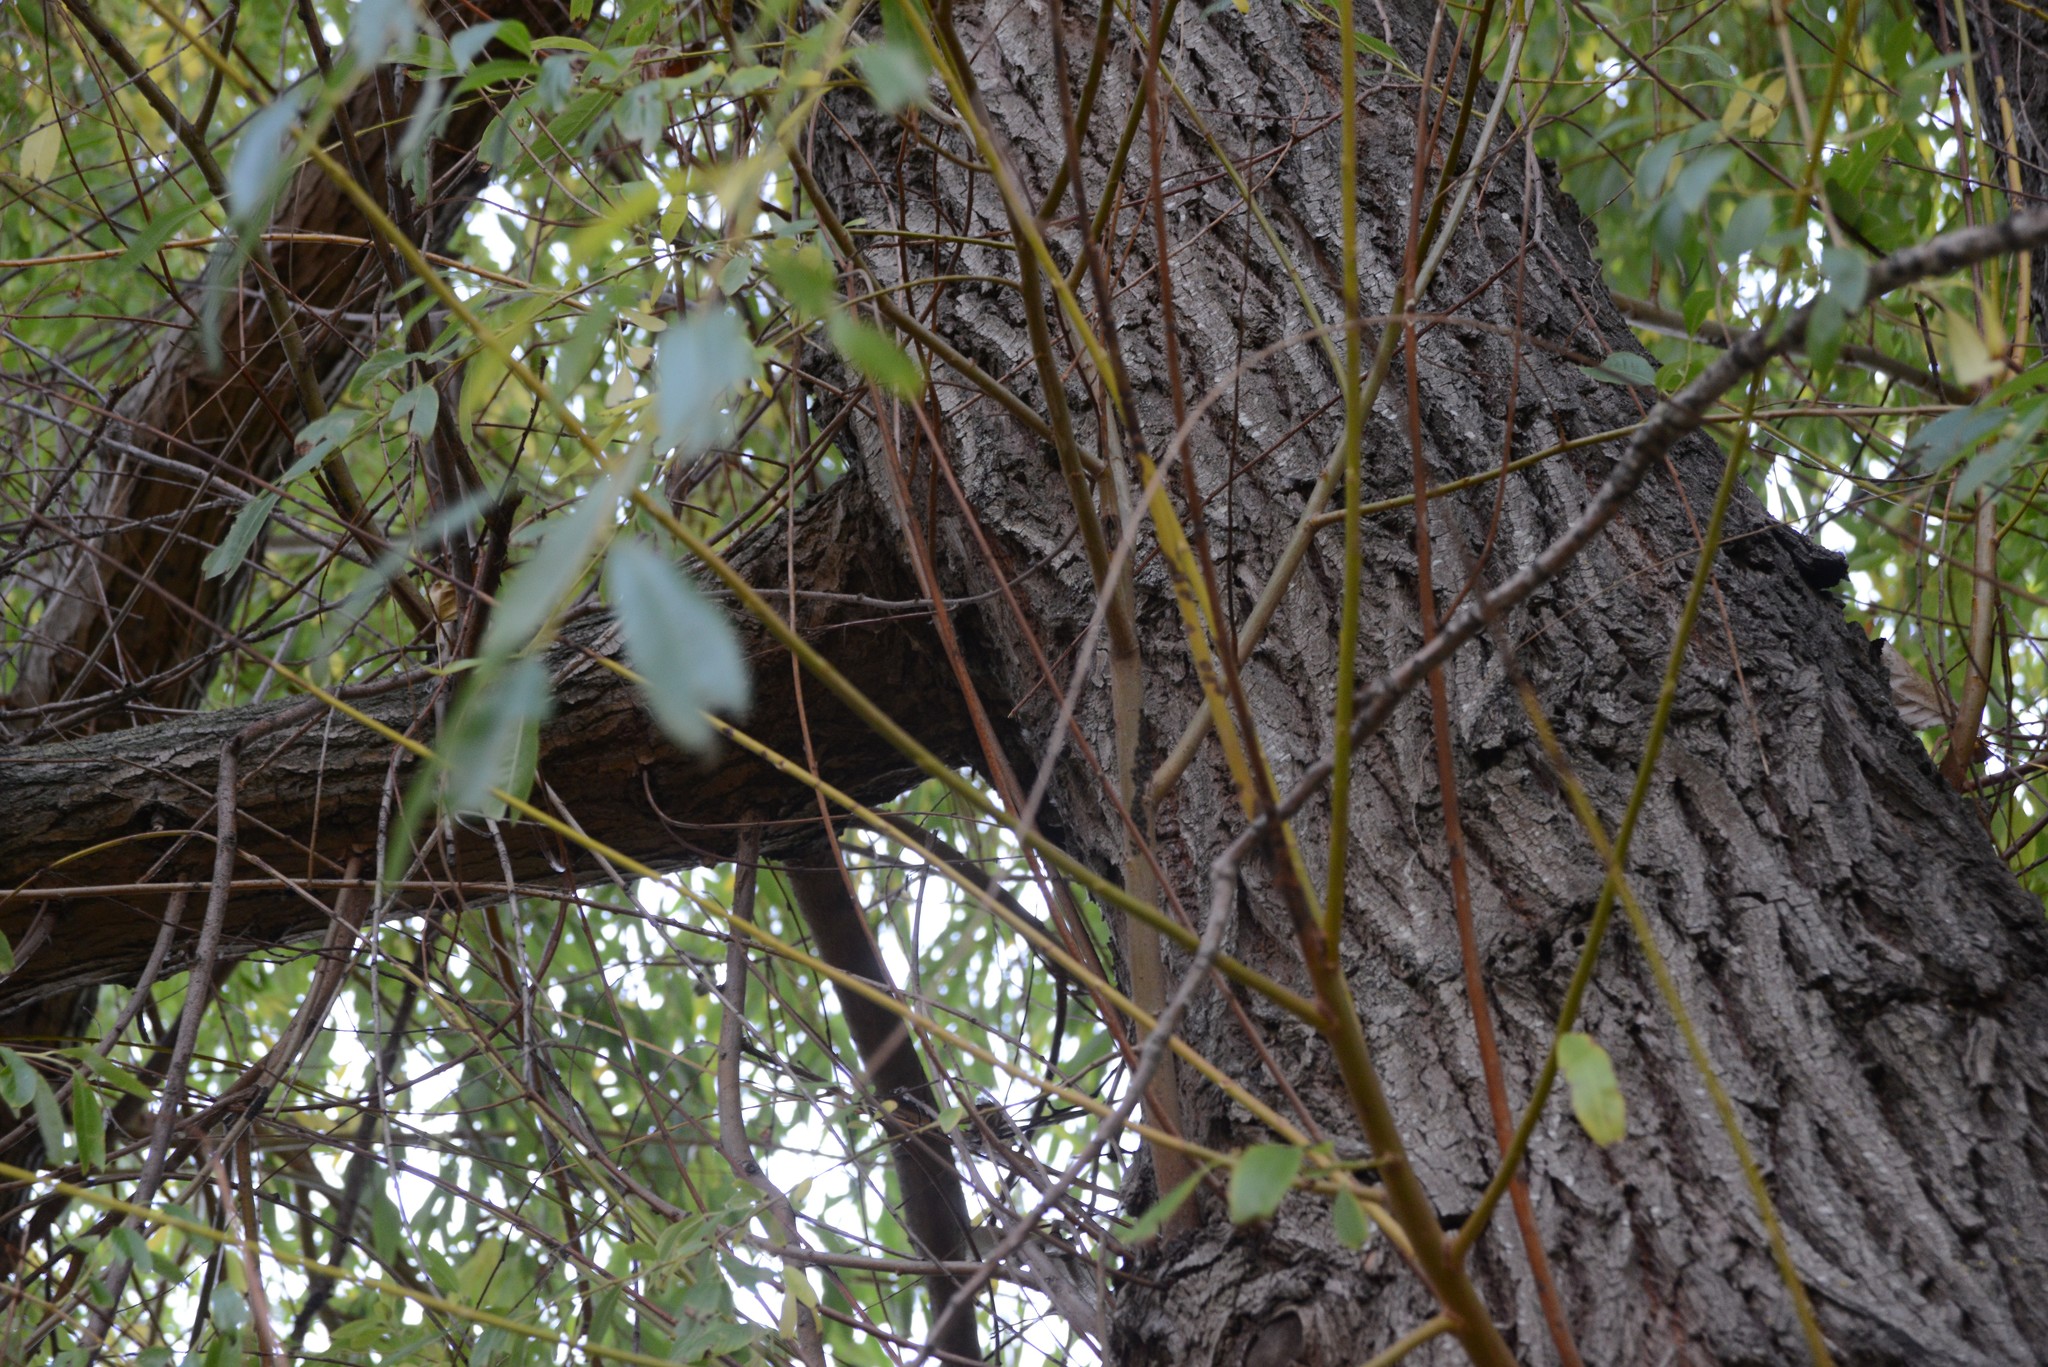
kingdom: Animalia
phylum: Arthropoda
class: Insecta
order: Hemiptera
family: Aphididae
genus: Tuberolachnus
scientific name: Tuberolachnus salignus
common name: Giant willow aphid
